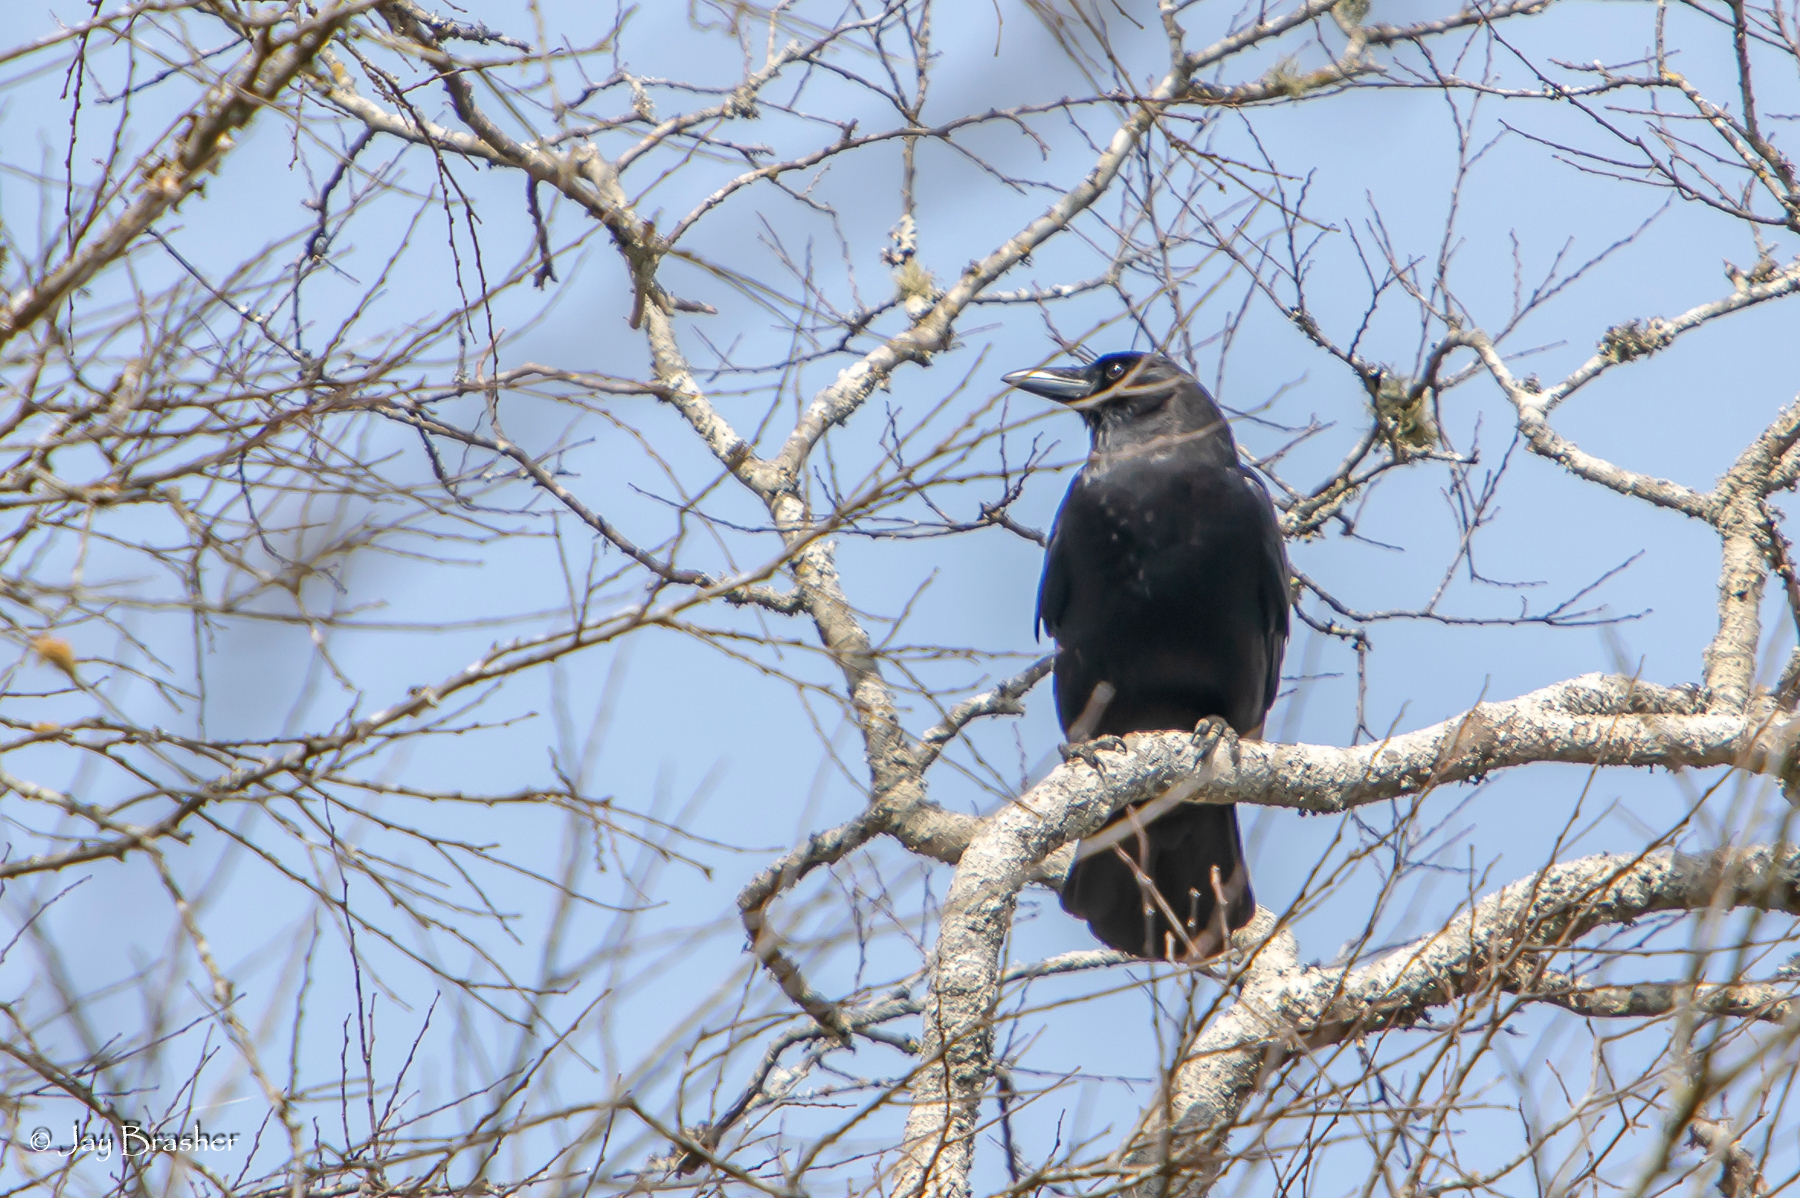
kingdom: Animalia
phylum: Chordata
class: Aves
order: Passeriformes
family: Corvidae
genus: Corvus
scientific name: Corvus brachyrhynchos
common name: American crow
